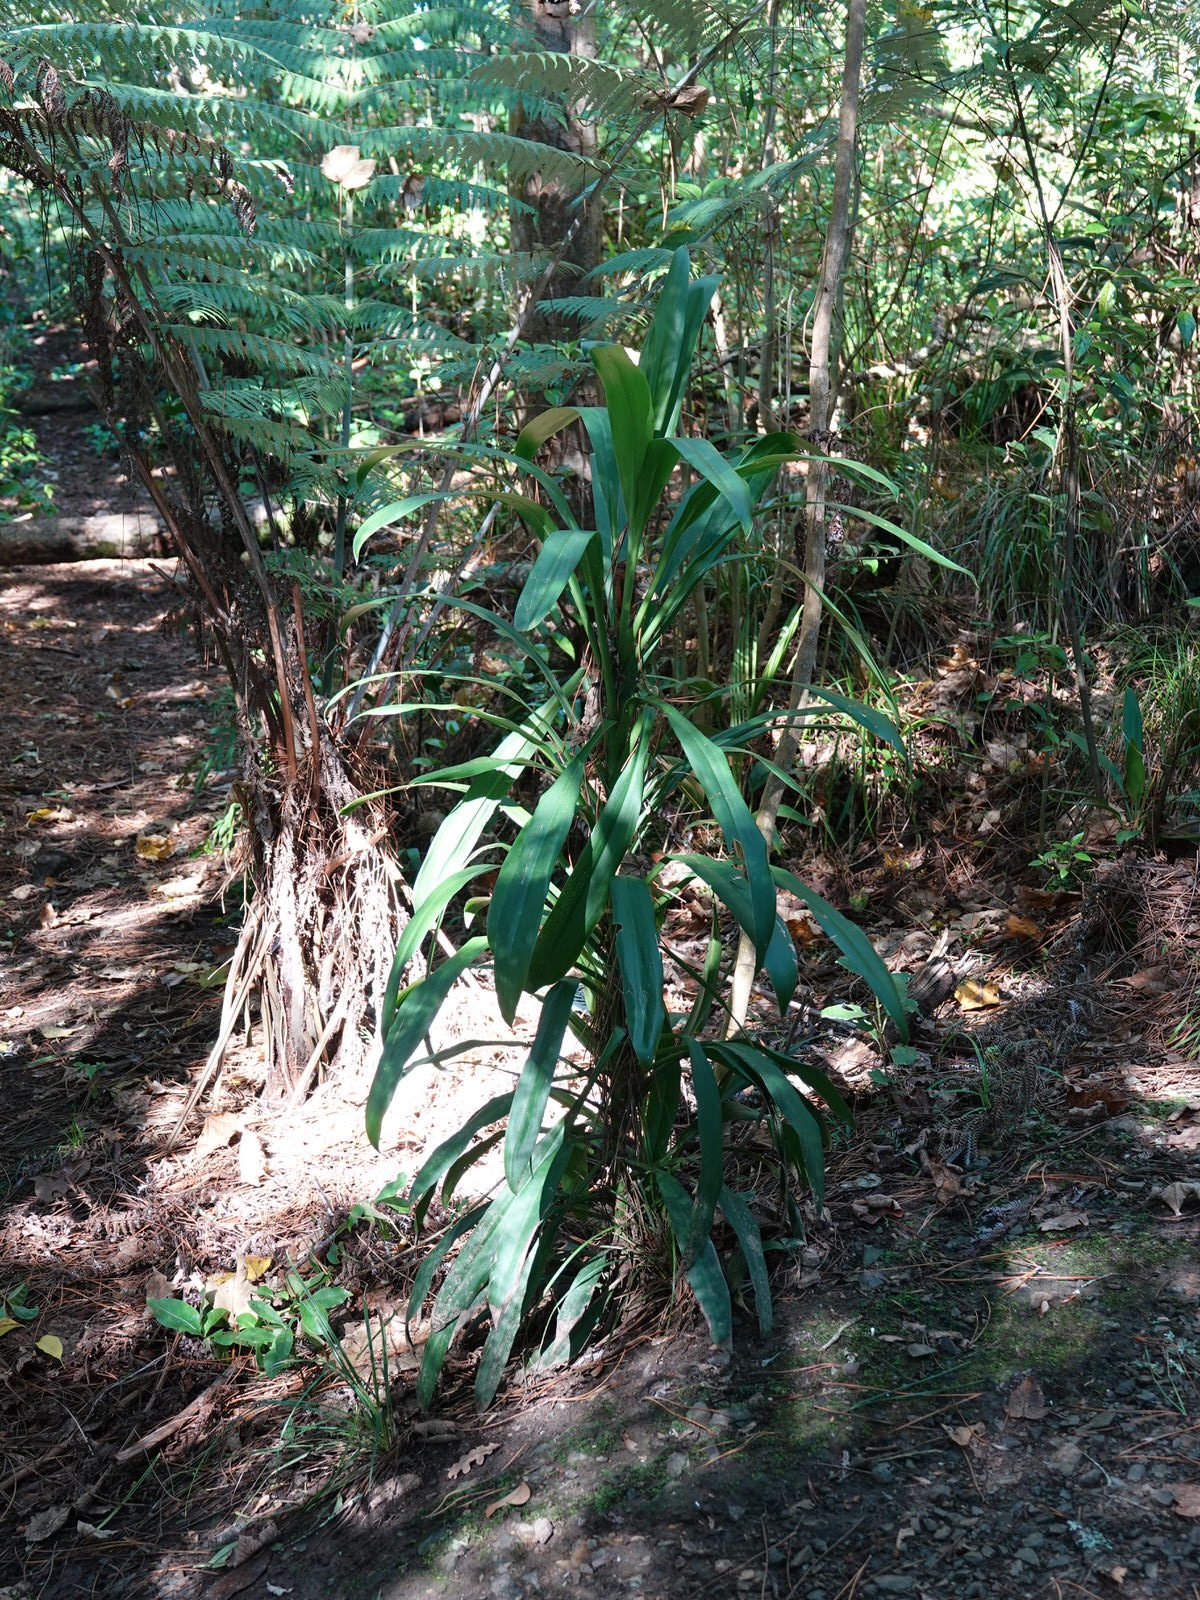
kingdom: Plantae
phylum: Tracheophyta
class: Liliopsida
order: Asparagales
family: Asparagaceae
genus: Cordyline
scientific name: Cordyline rubra
